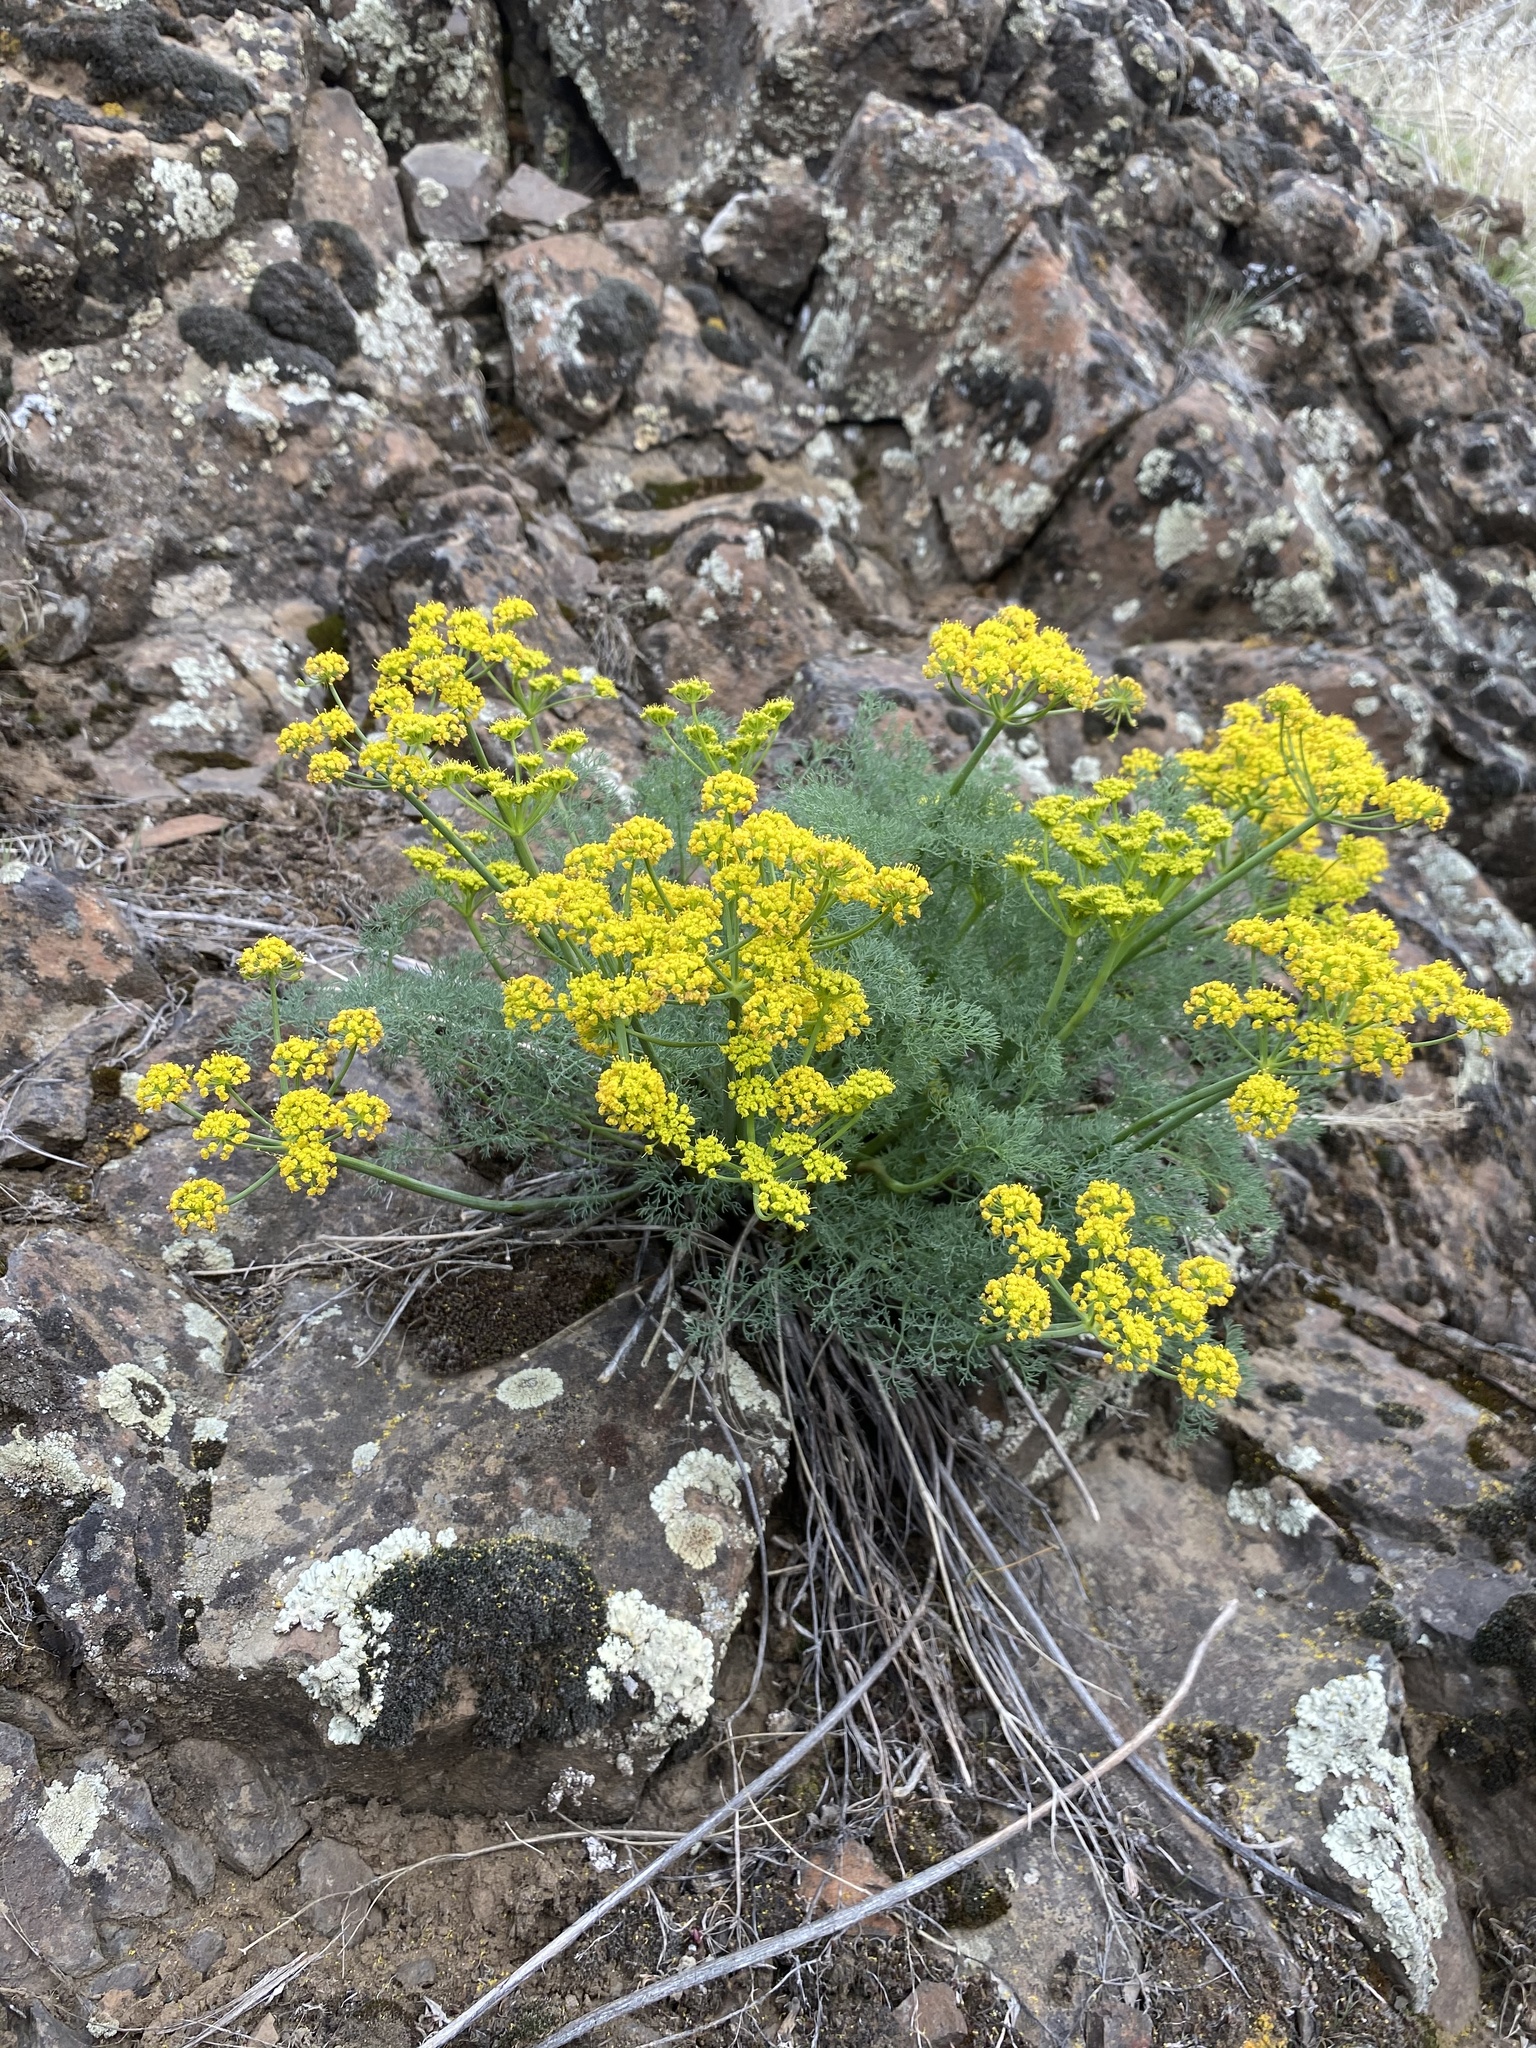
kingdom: Plantae
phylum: Tracheophyta
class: Magnoliopsida
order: Apiales
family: Apiaceae
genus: Lomatium
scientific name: Lomatium papilioniferum
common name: Butterfly lomatium
